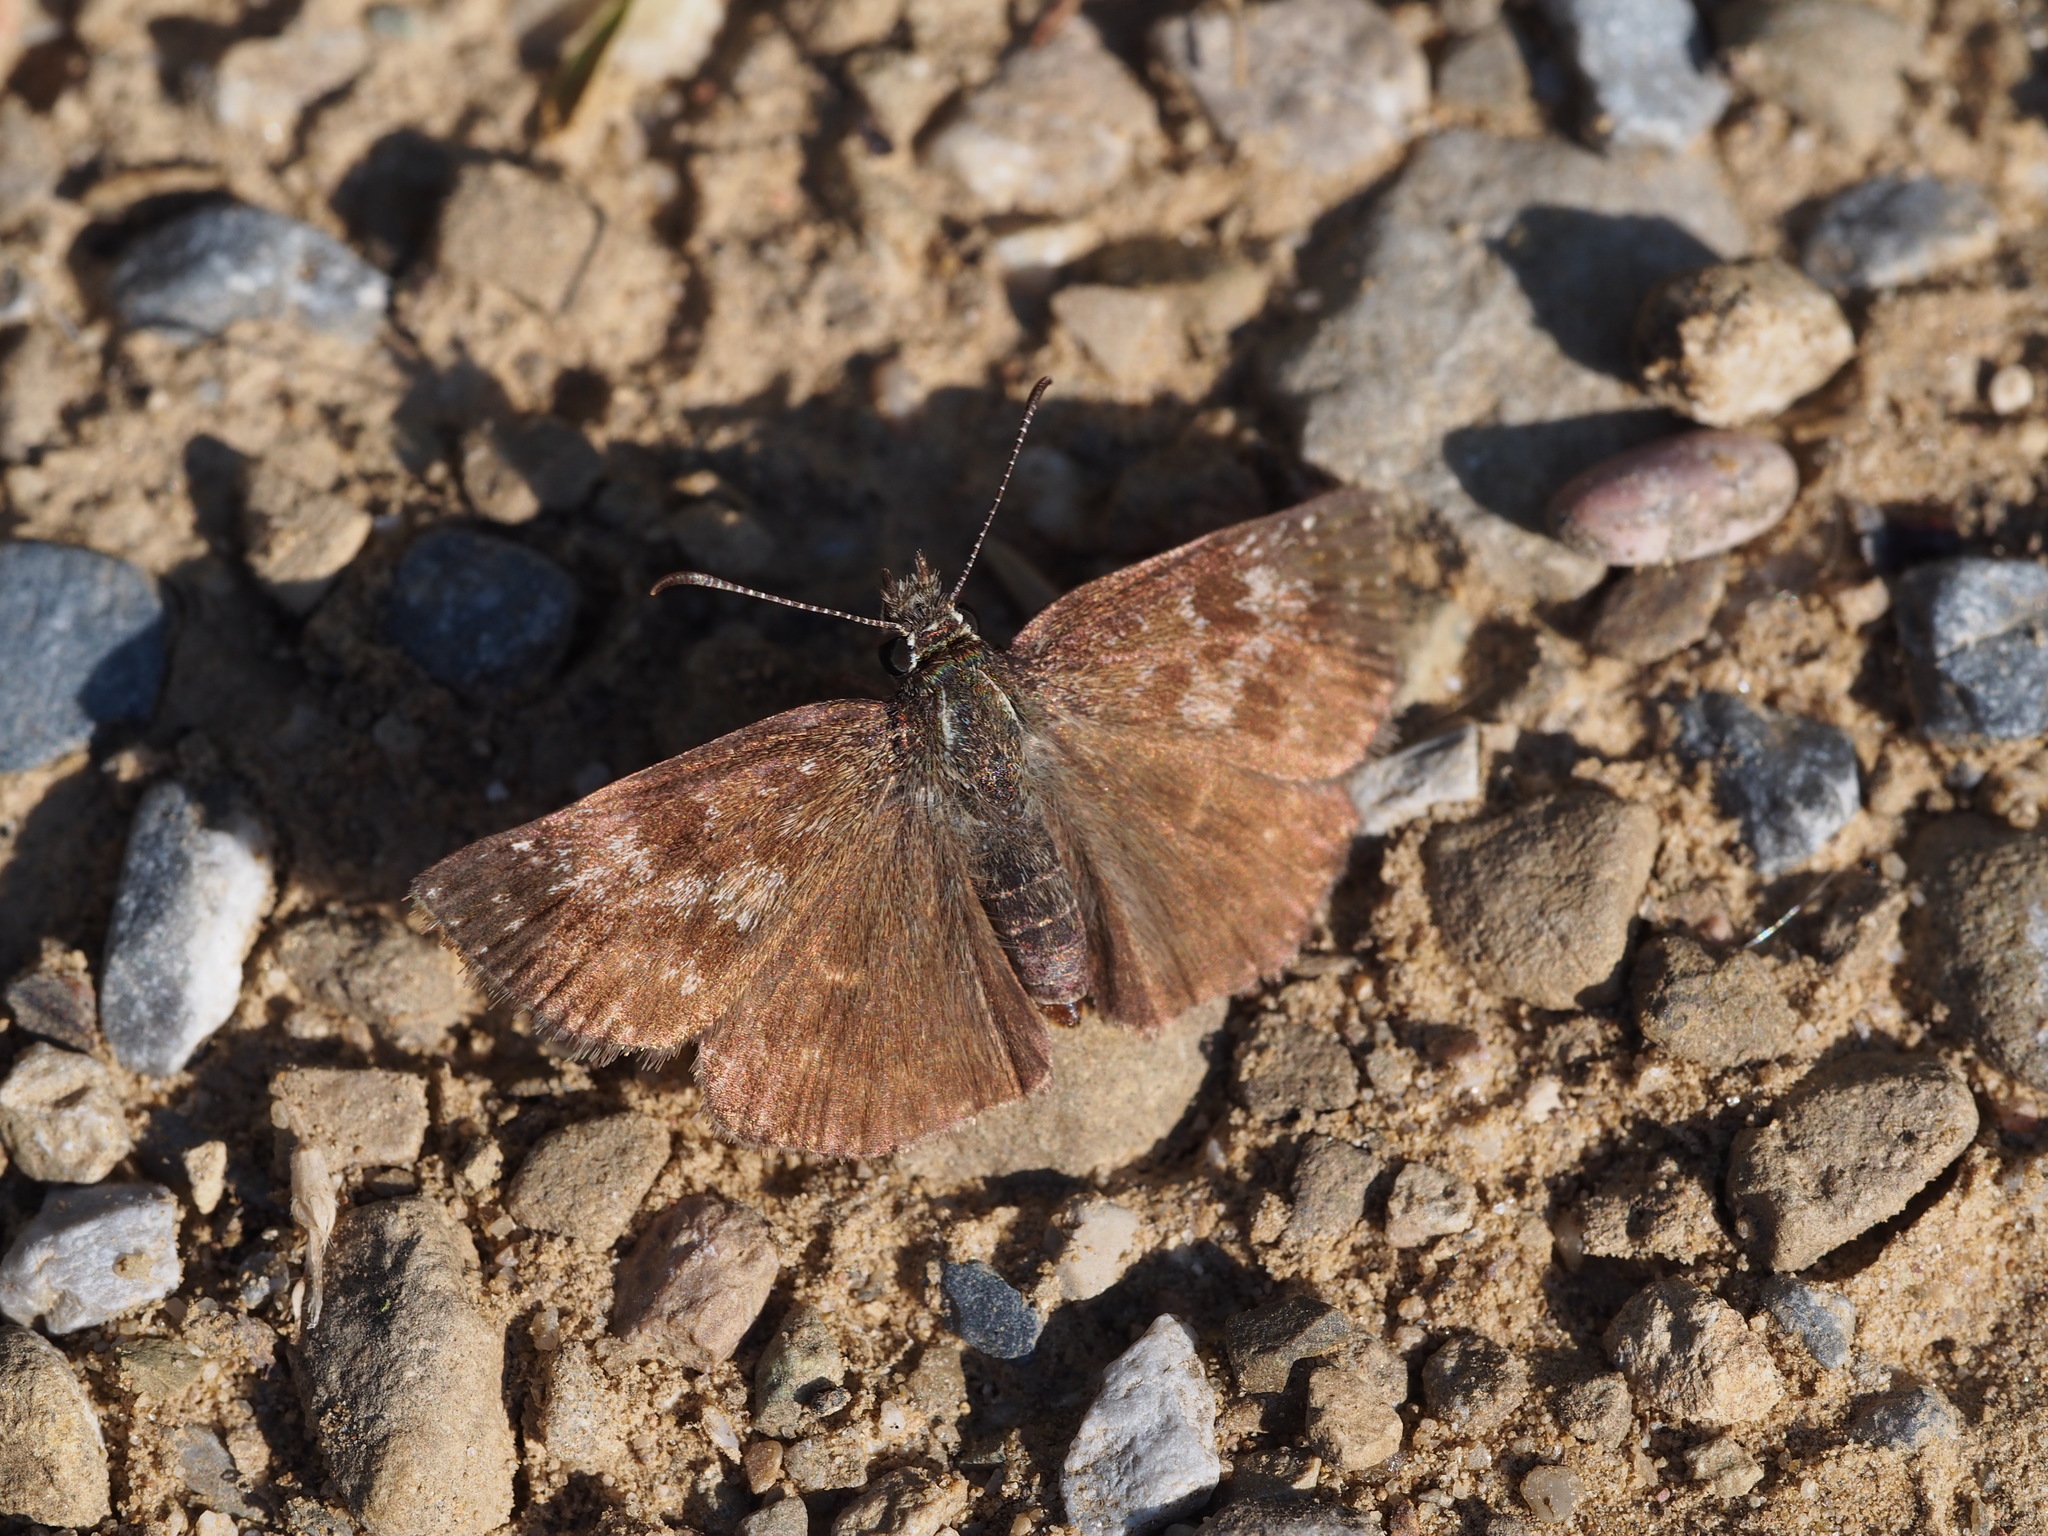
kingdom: Animalia
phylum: Arthropoda
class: Insecta
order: Lepidoptera
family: Hesperiidae
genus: Erynnis
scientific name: Erynnis tages
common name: Dingy skipper
